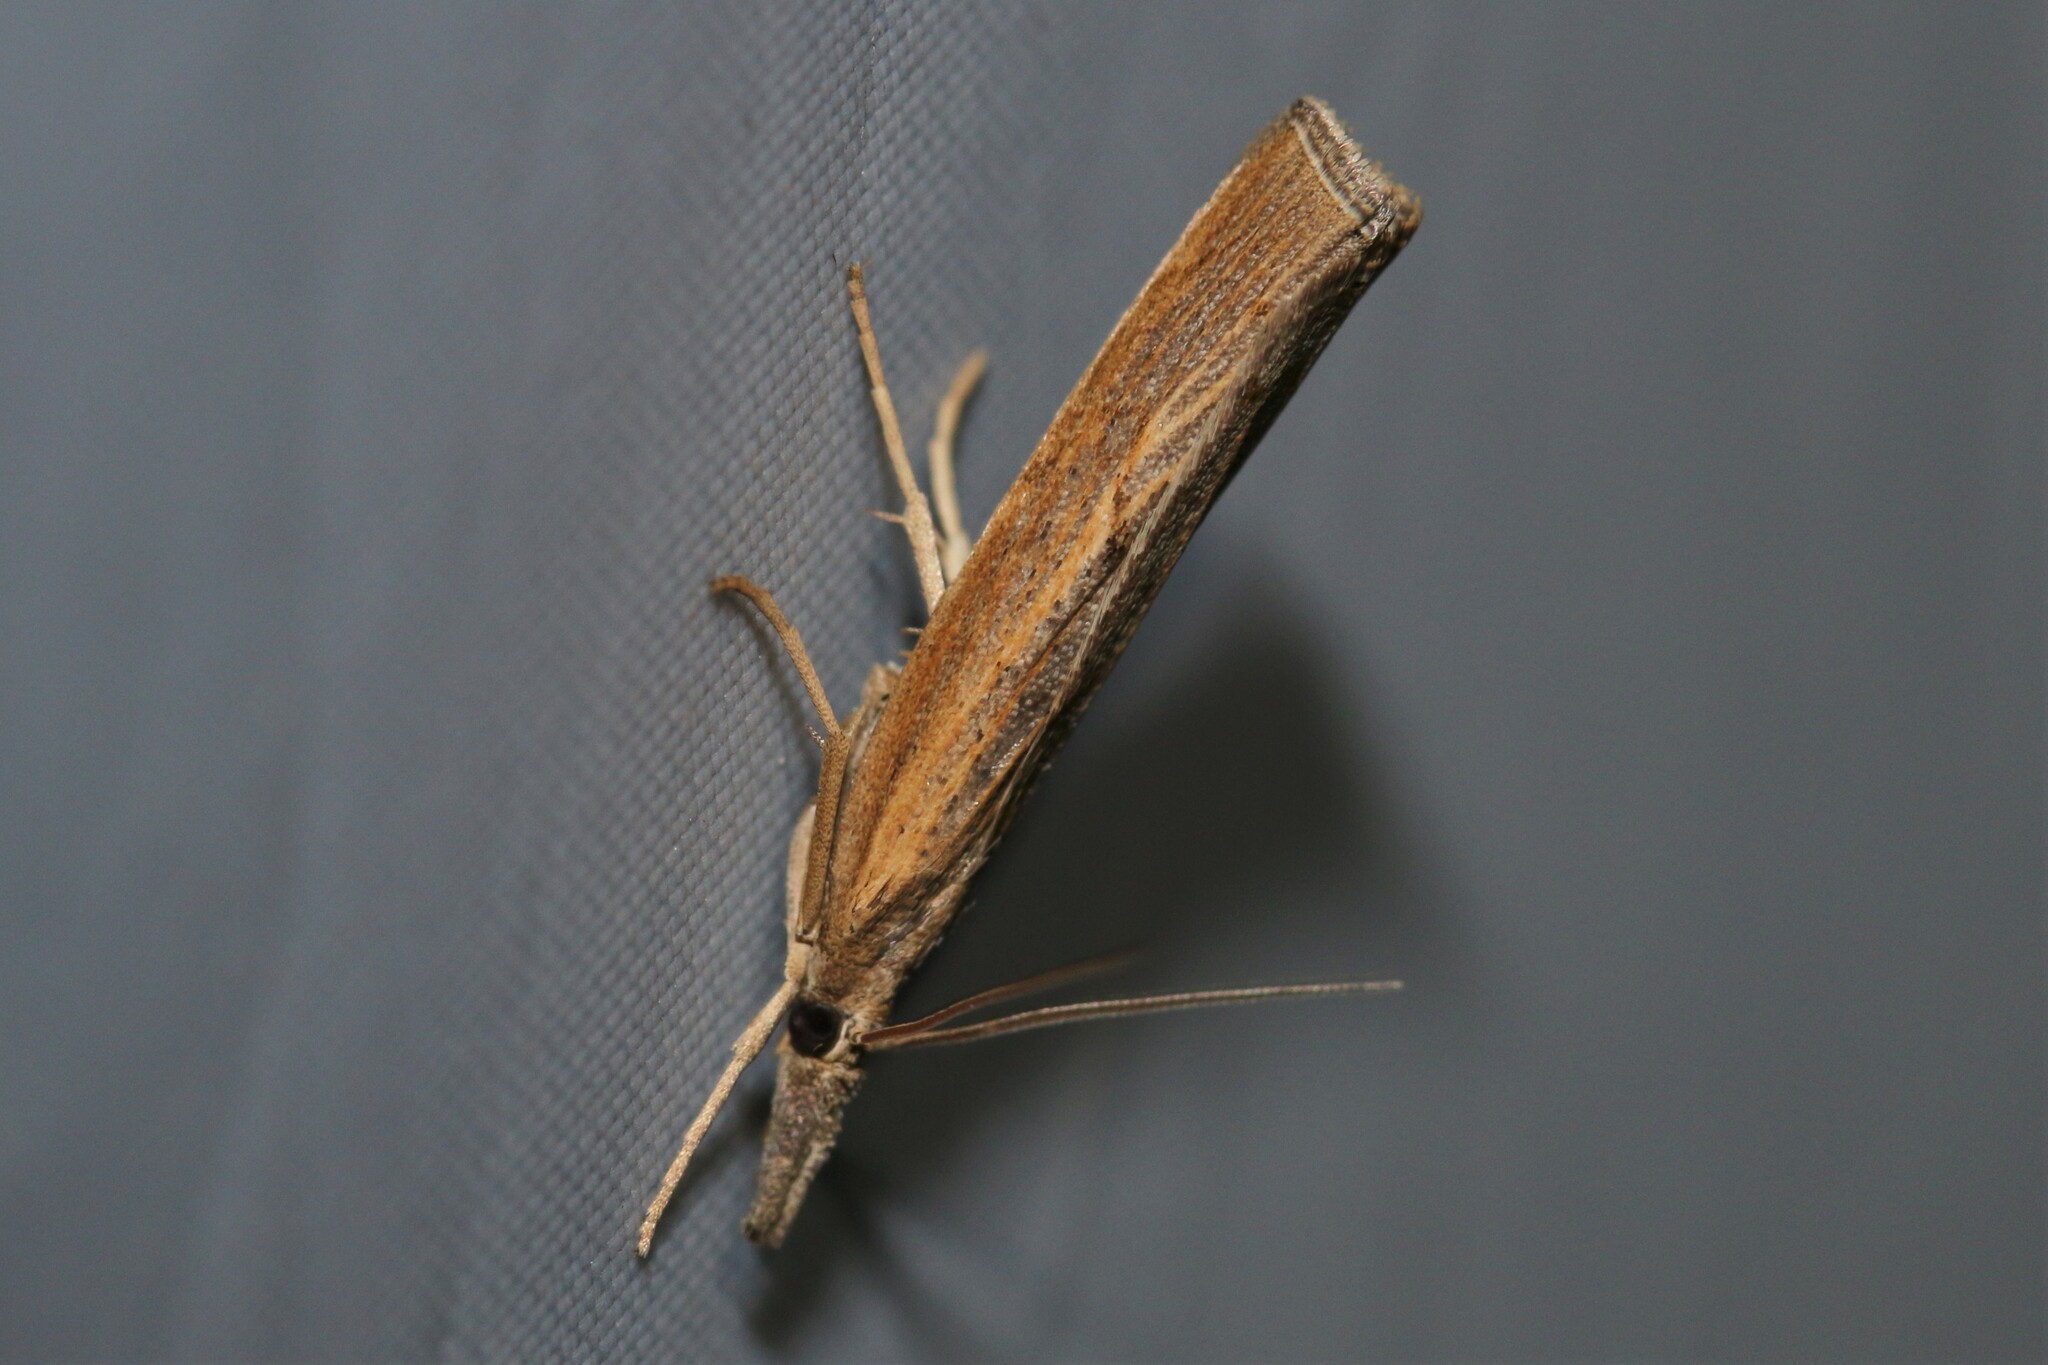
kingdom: Animalia
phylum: Arthropoda
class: Insecta
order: Lepidoptera
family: Crambidae
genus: Pediasia
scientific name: Pediasia contaminella
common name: Waste grass-veneer
